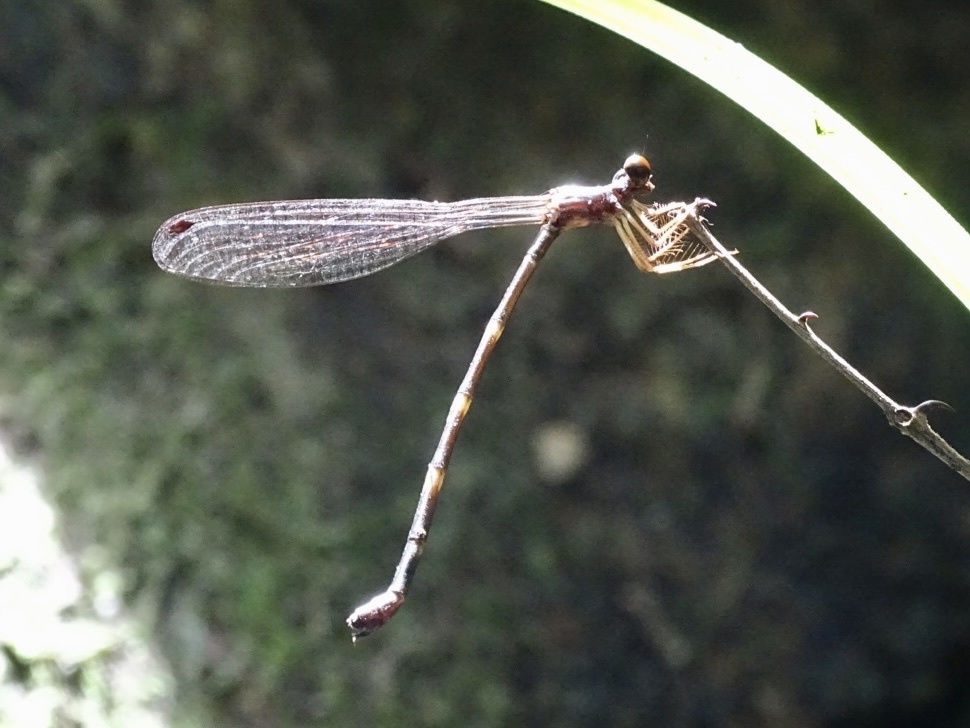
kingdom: Animalia
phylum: Arthropoda
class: Insecta
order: Odonata
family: Thaumatoneuridae
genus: Agriomorpha
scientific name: Agriomorpha fusca
